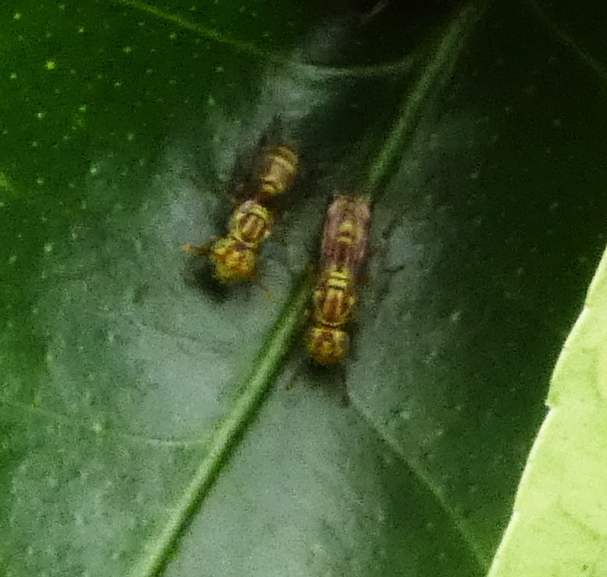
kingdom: Animalia
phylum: Arthropoda
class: Insecta
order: Hymenoptera
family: Vespidae
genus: Protopolybia
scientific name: Protopolybia potiguara
